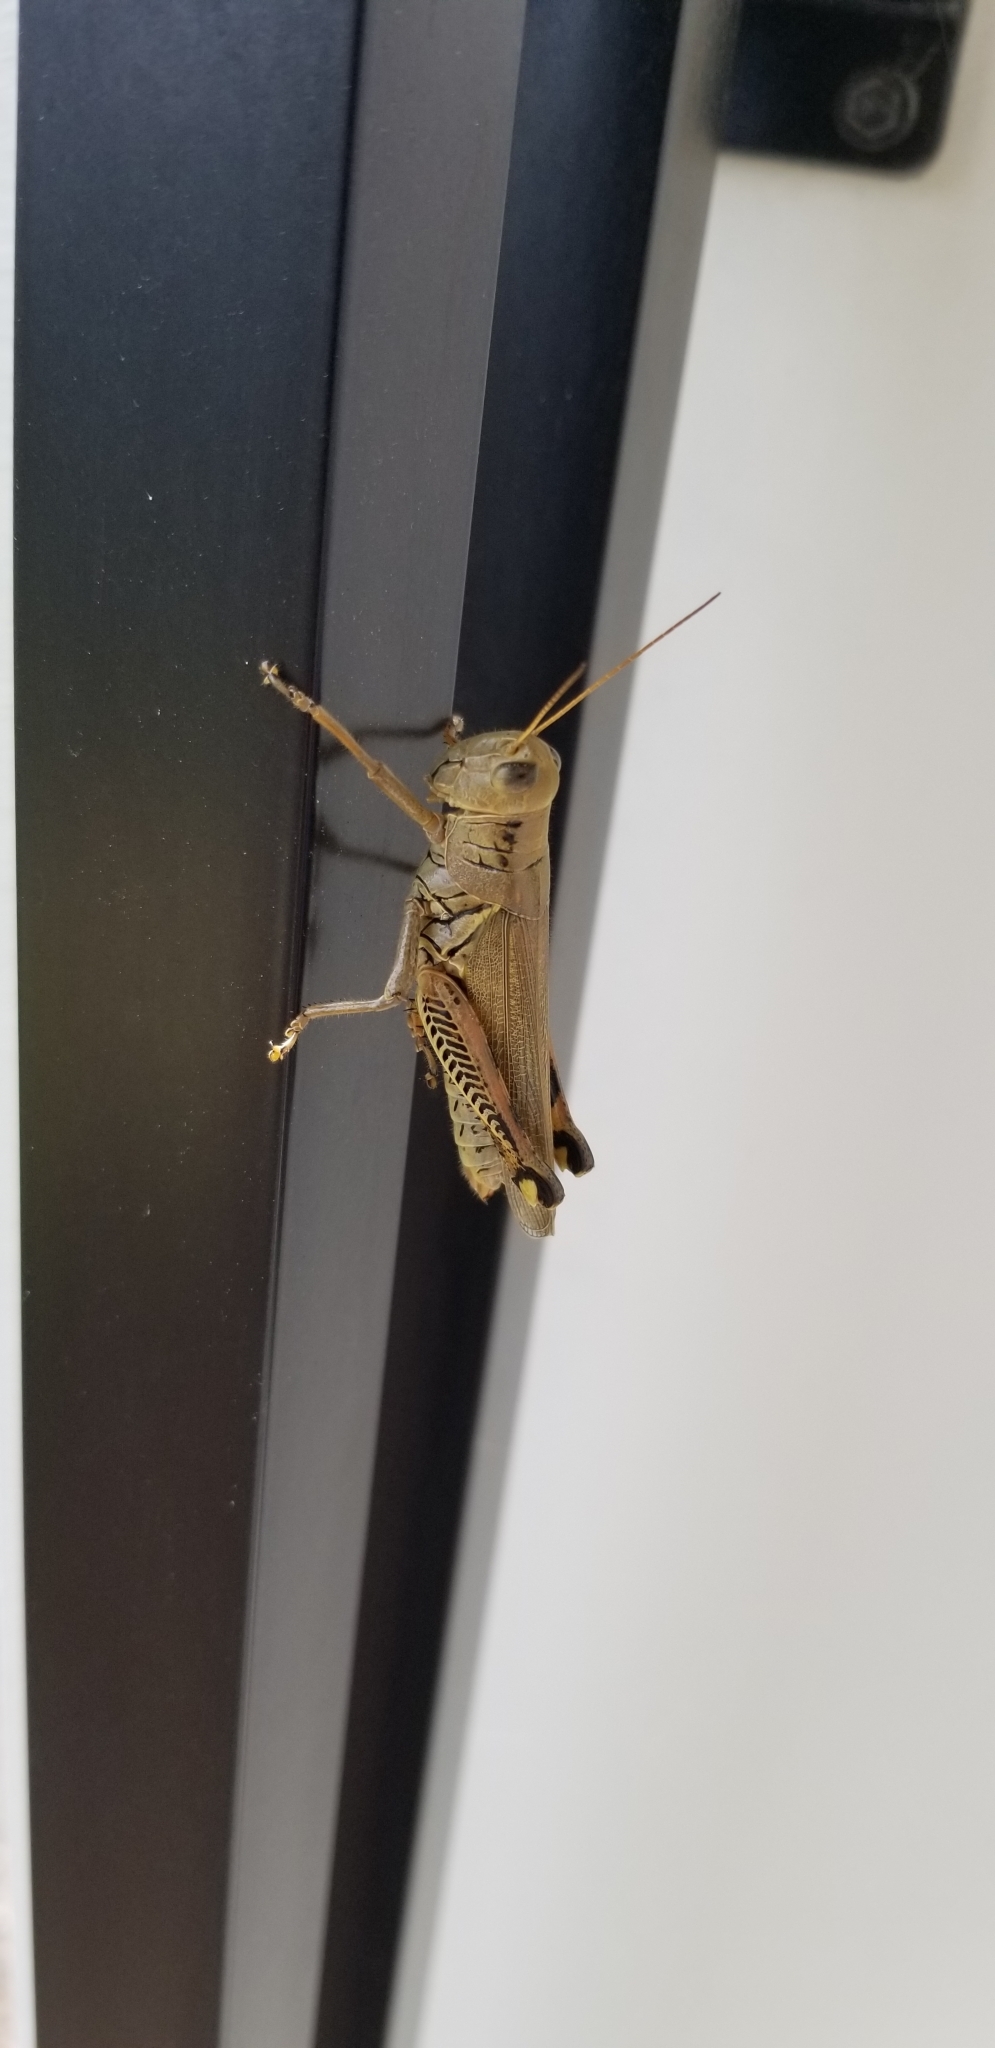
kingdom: Animalia
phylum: Arthropoda
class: Insecta
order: Orthoptera
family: Acrididae
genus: Melanoplus
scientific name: Melanoplus differentialis
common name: Differential grasshopper
